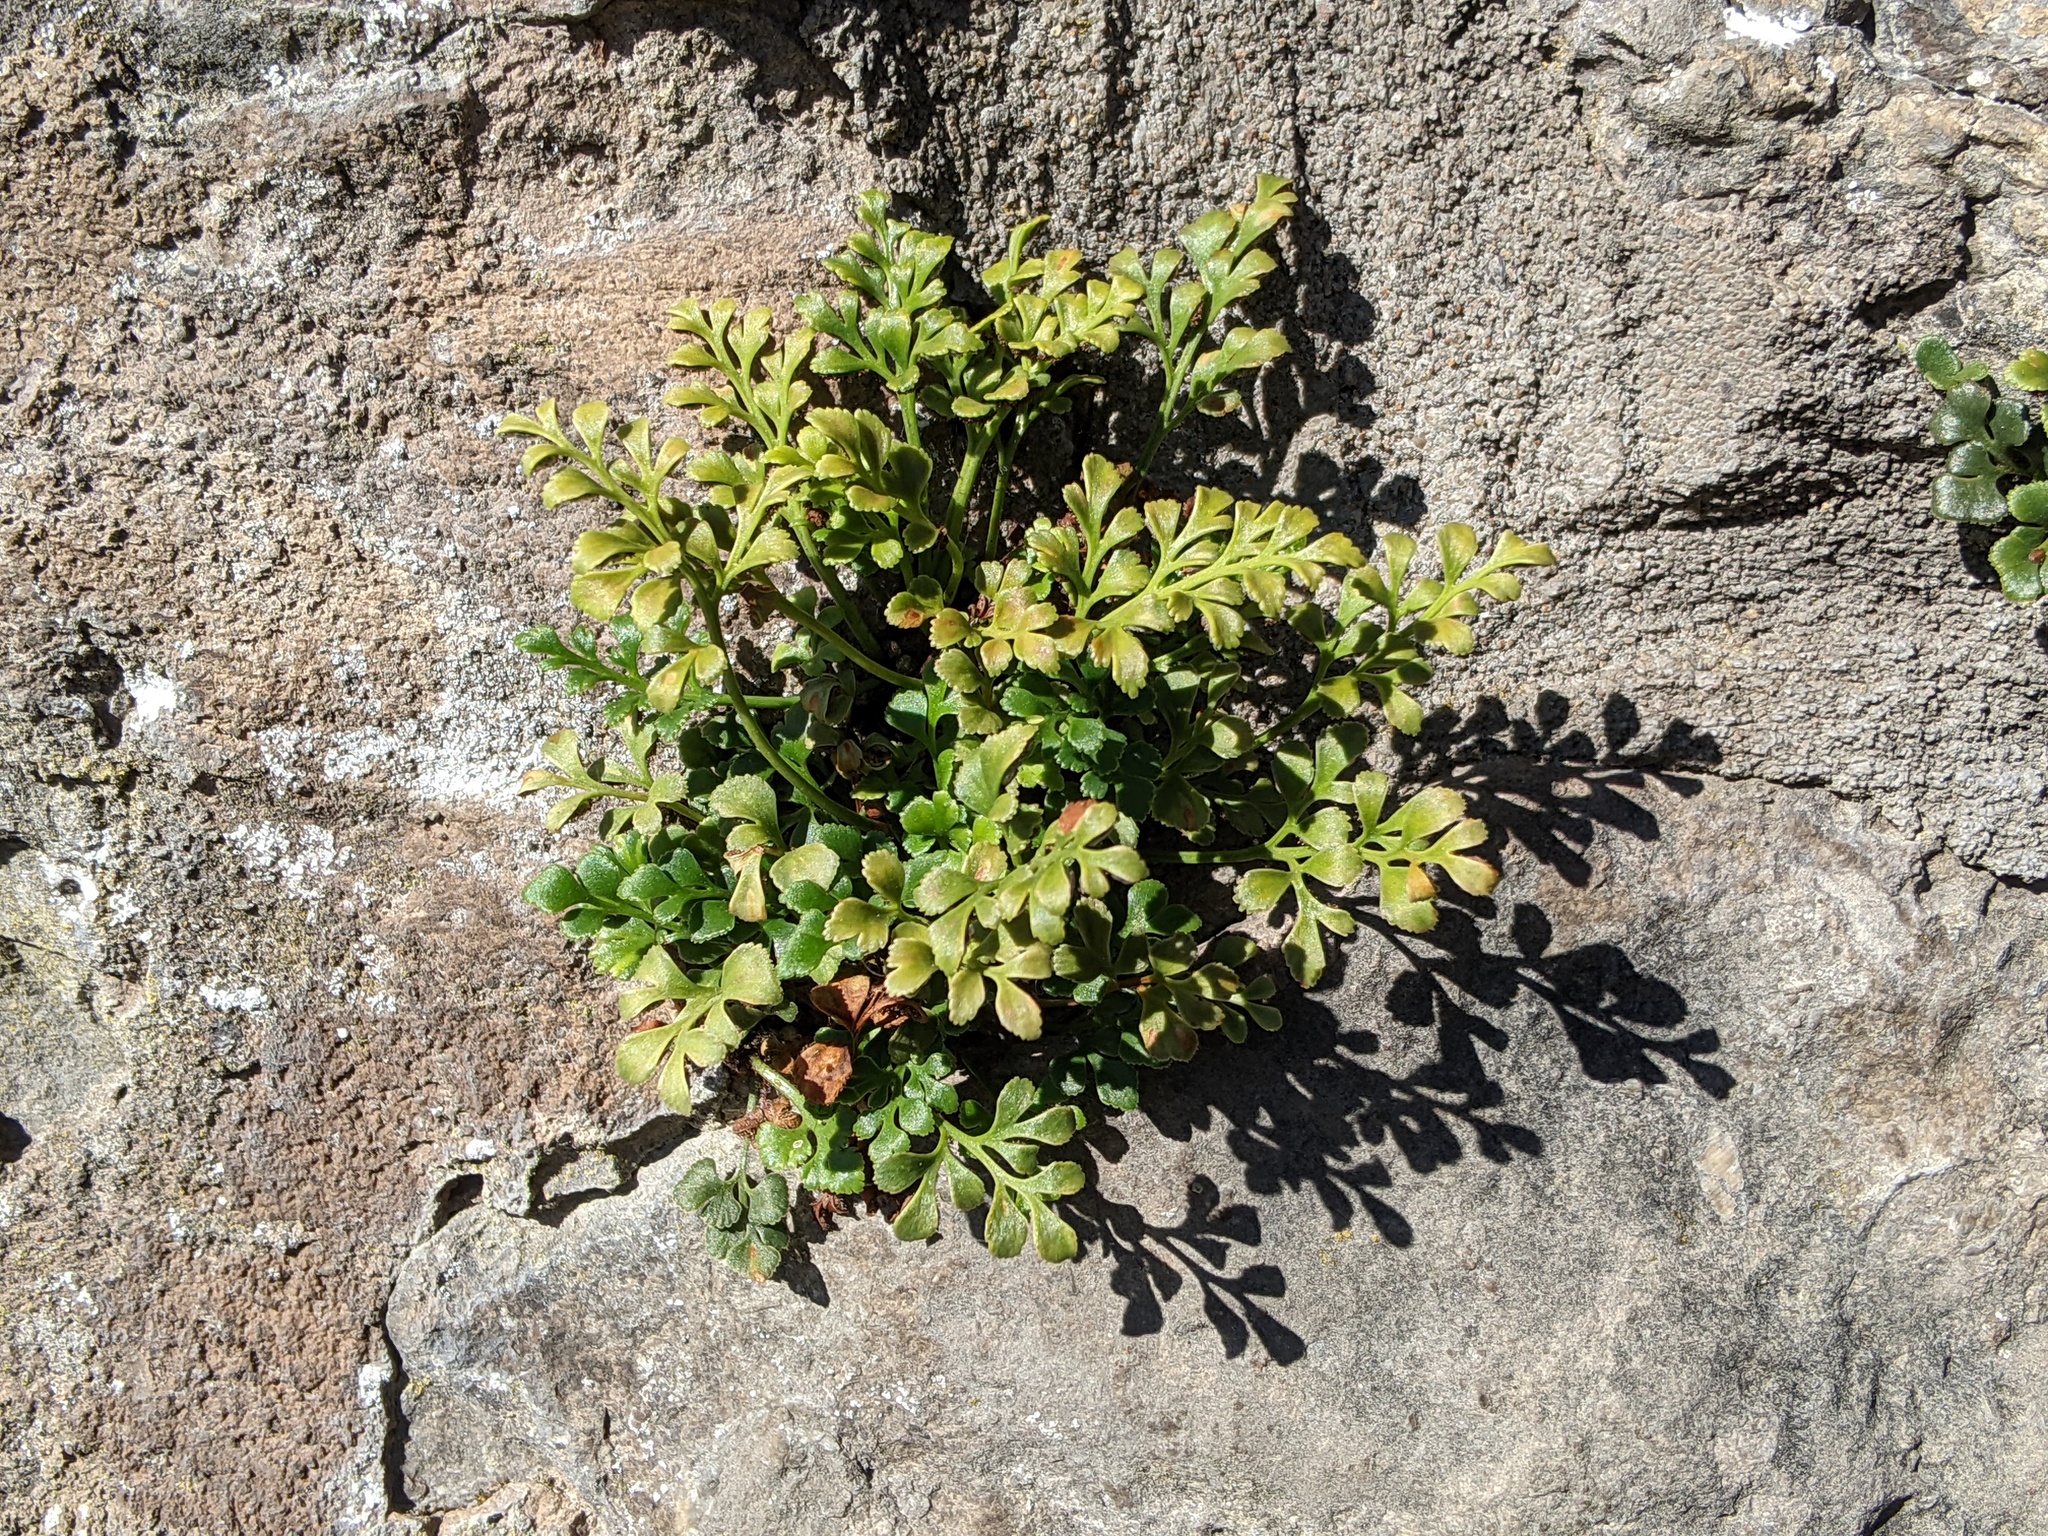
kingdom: Plantae
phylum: Tracheophyta
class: Polypodiopsida
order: Polypodiales
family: Aspleniaceae
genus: Asplenium
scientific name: Asplenium ruta-muraria
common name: Wall-rue
